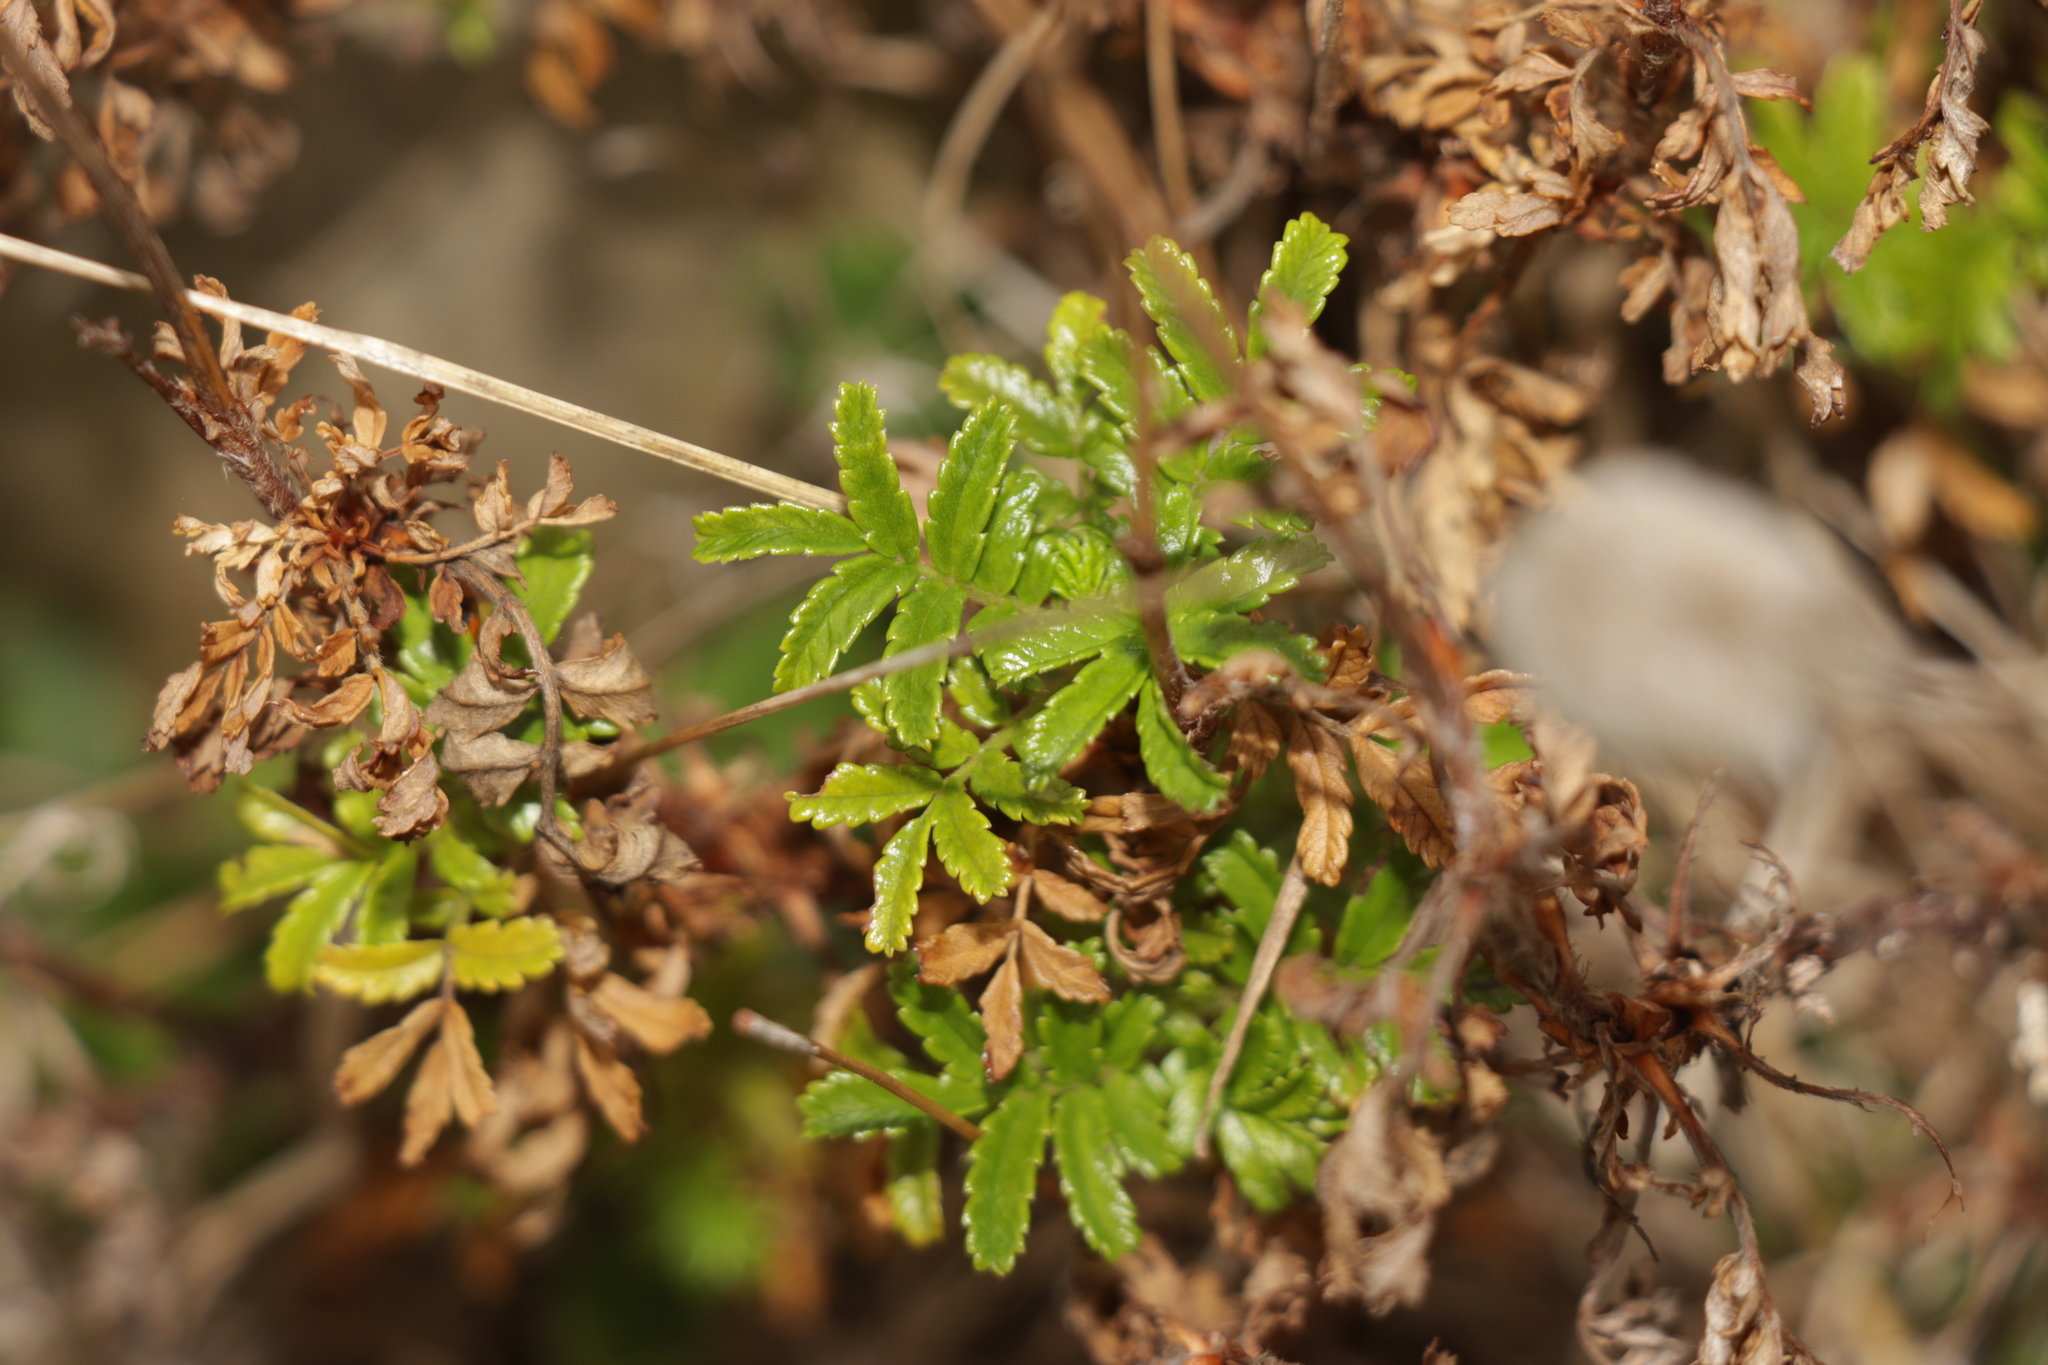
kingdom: Plantae
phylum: Tracheophyta
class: Magnoliopsida
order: Rosales
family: Rosaceae
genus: Acaena
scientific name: Acaena novae-zelandiae
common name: Pirri-pirri-bur
